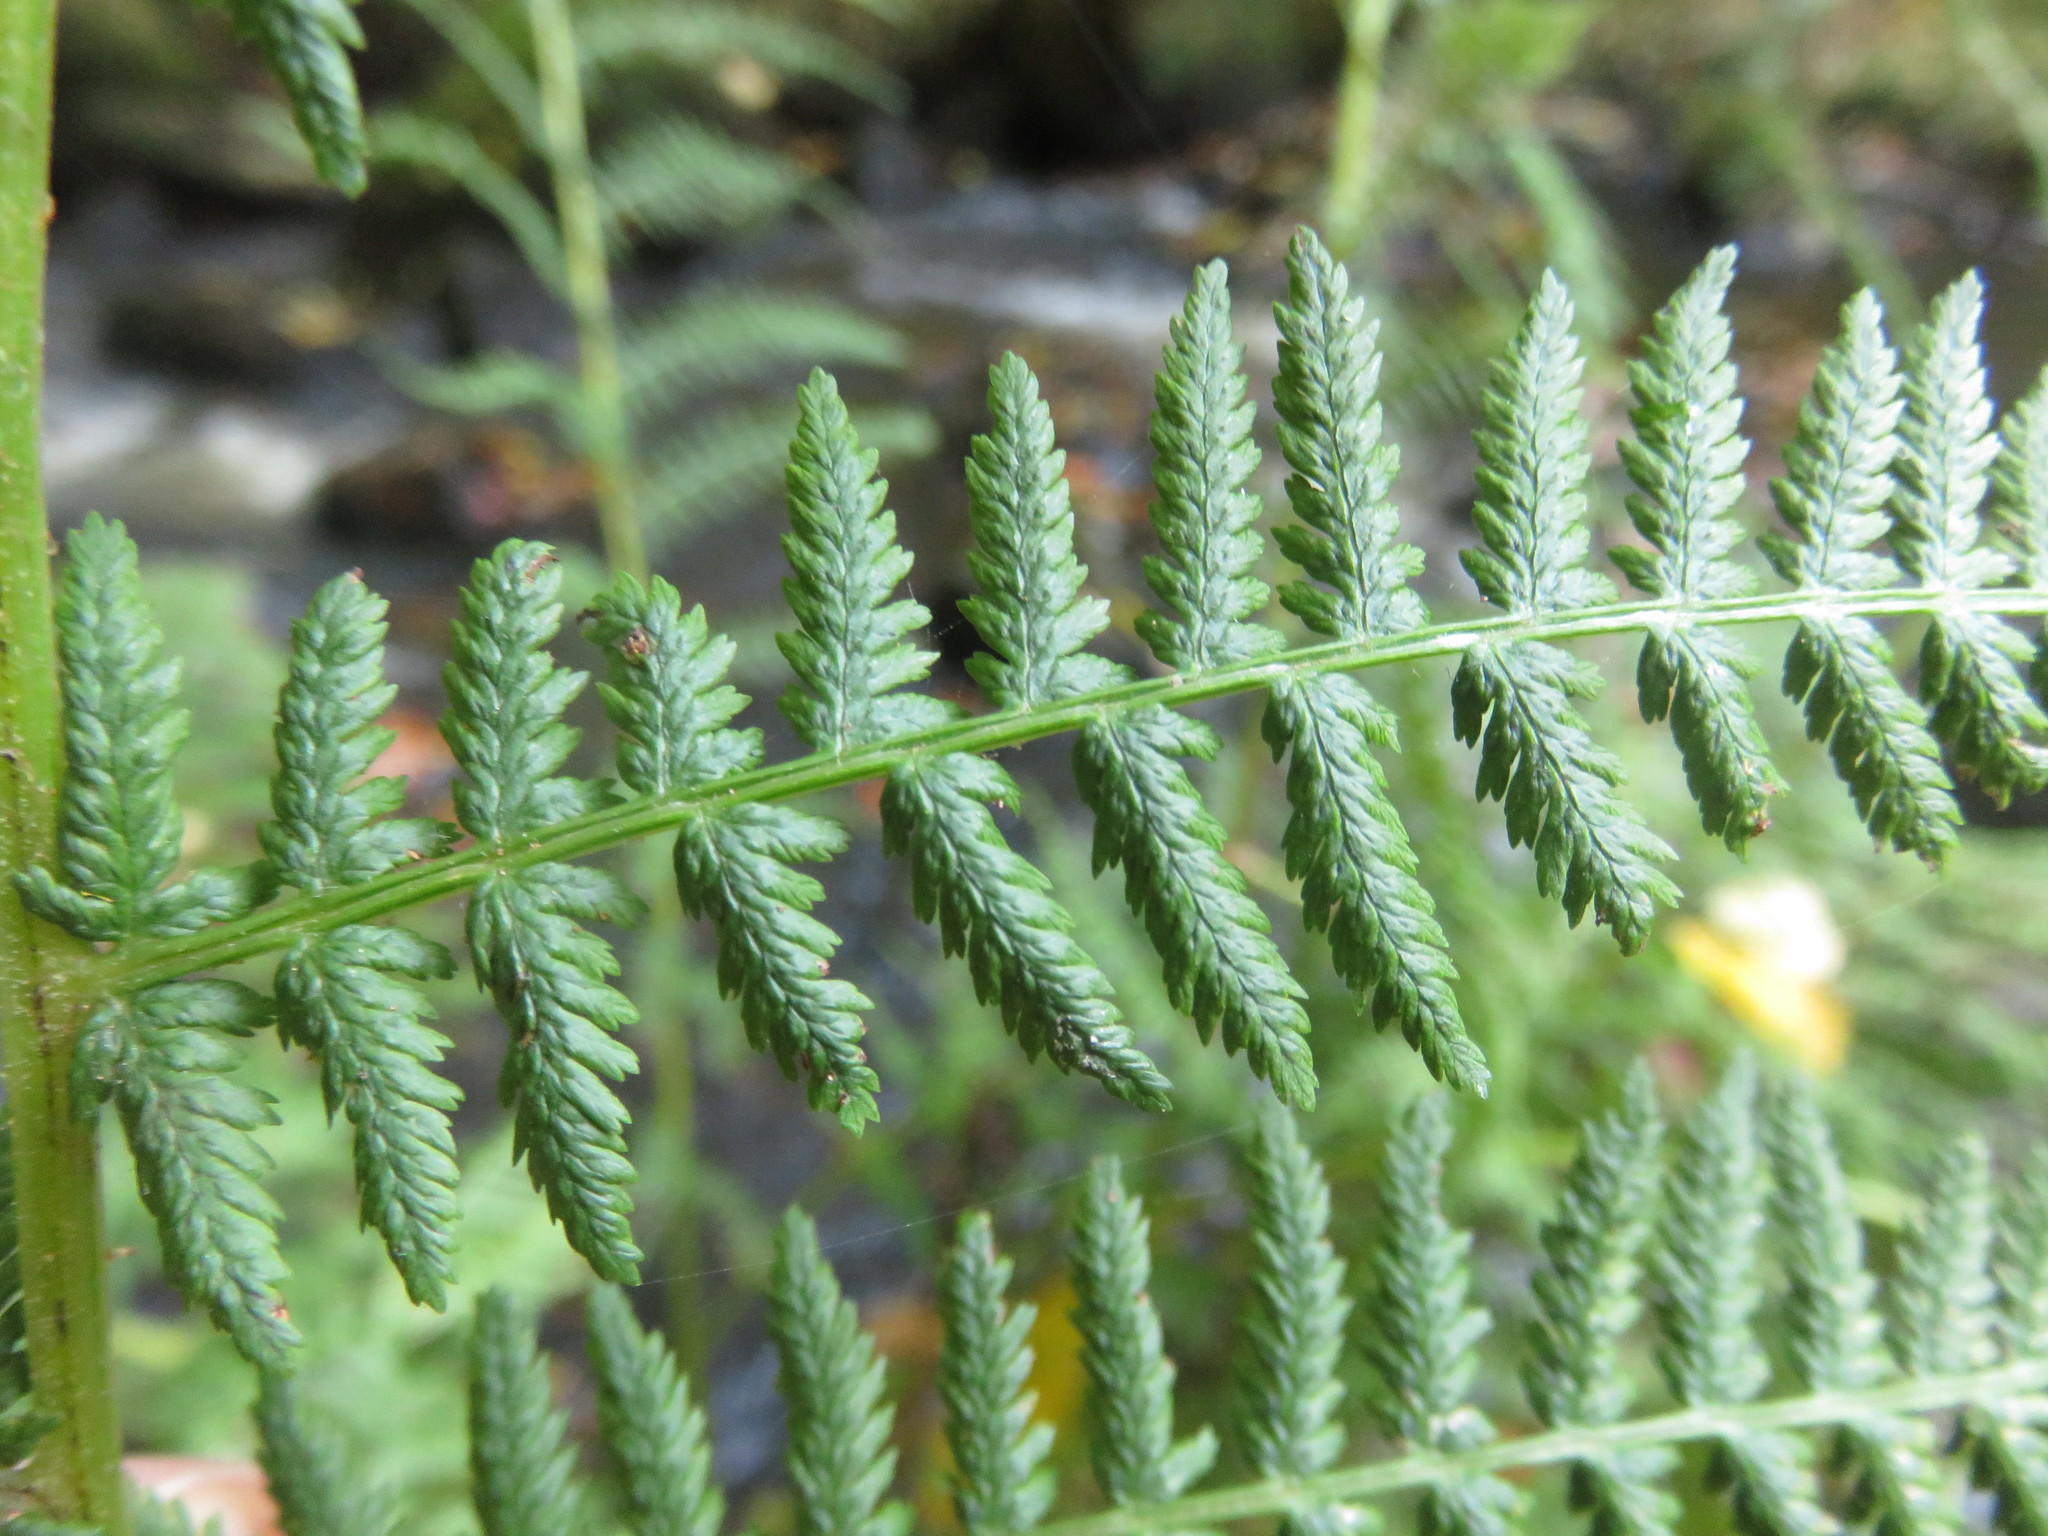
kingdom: Plantae
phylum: Tracheophyta
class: Polypodiopsida
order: Polypodiales
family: Athyriaceae
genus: Athyrium
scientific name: Athyrium filix-femina
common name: Lady fern
